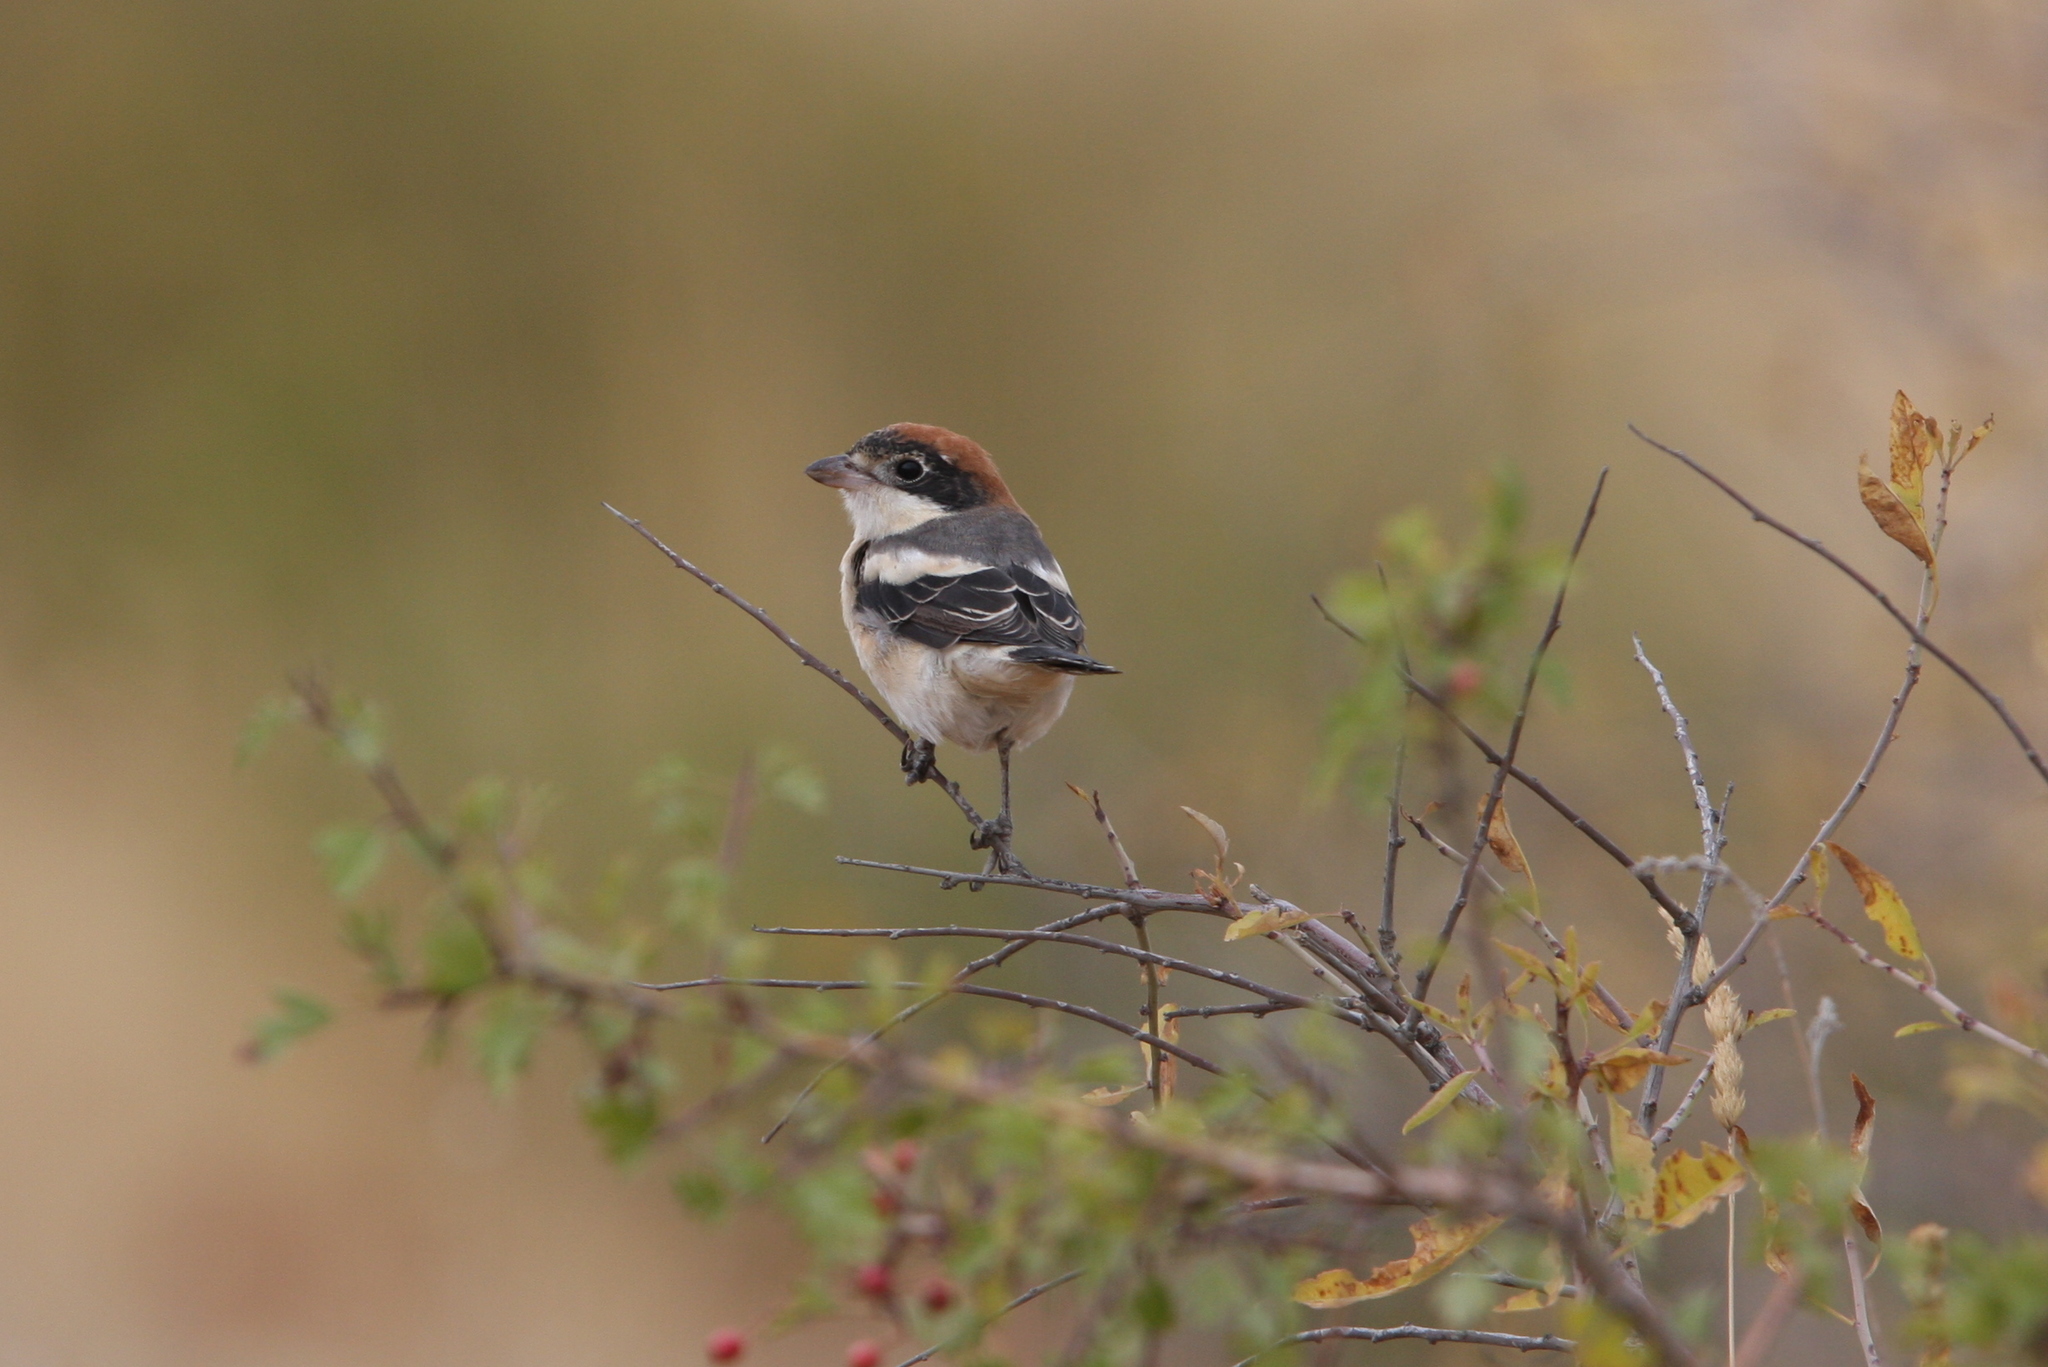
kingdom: Animalia
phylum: Chordata
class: Aves
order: Passeriformes
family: Laniidae
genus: Lanius
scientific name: Lanius senator
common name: Woodchat shrike
